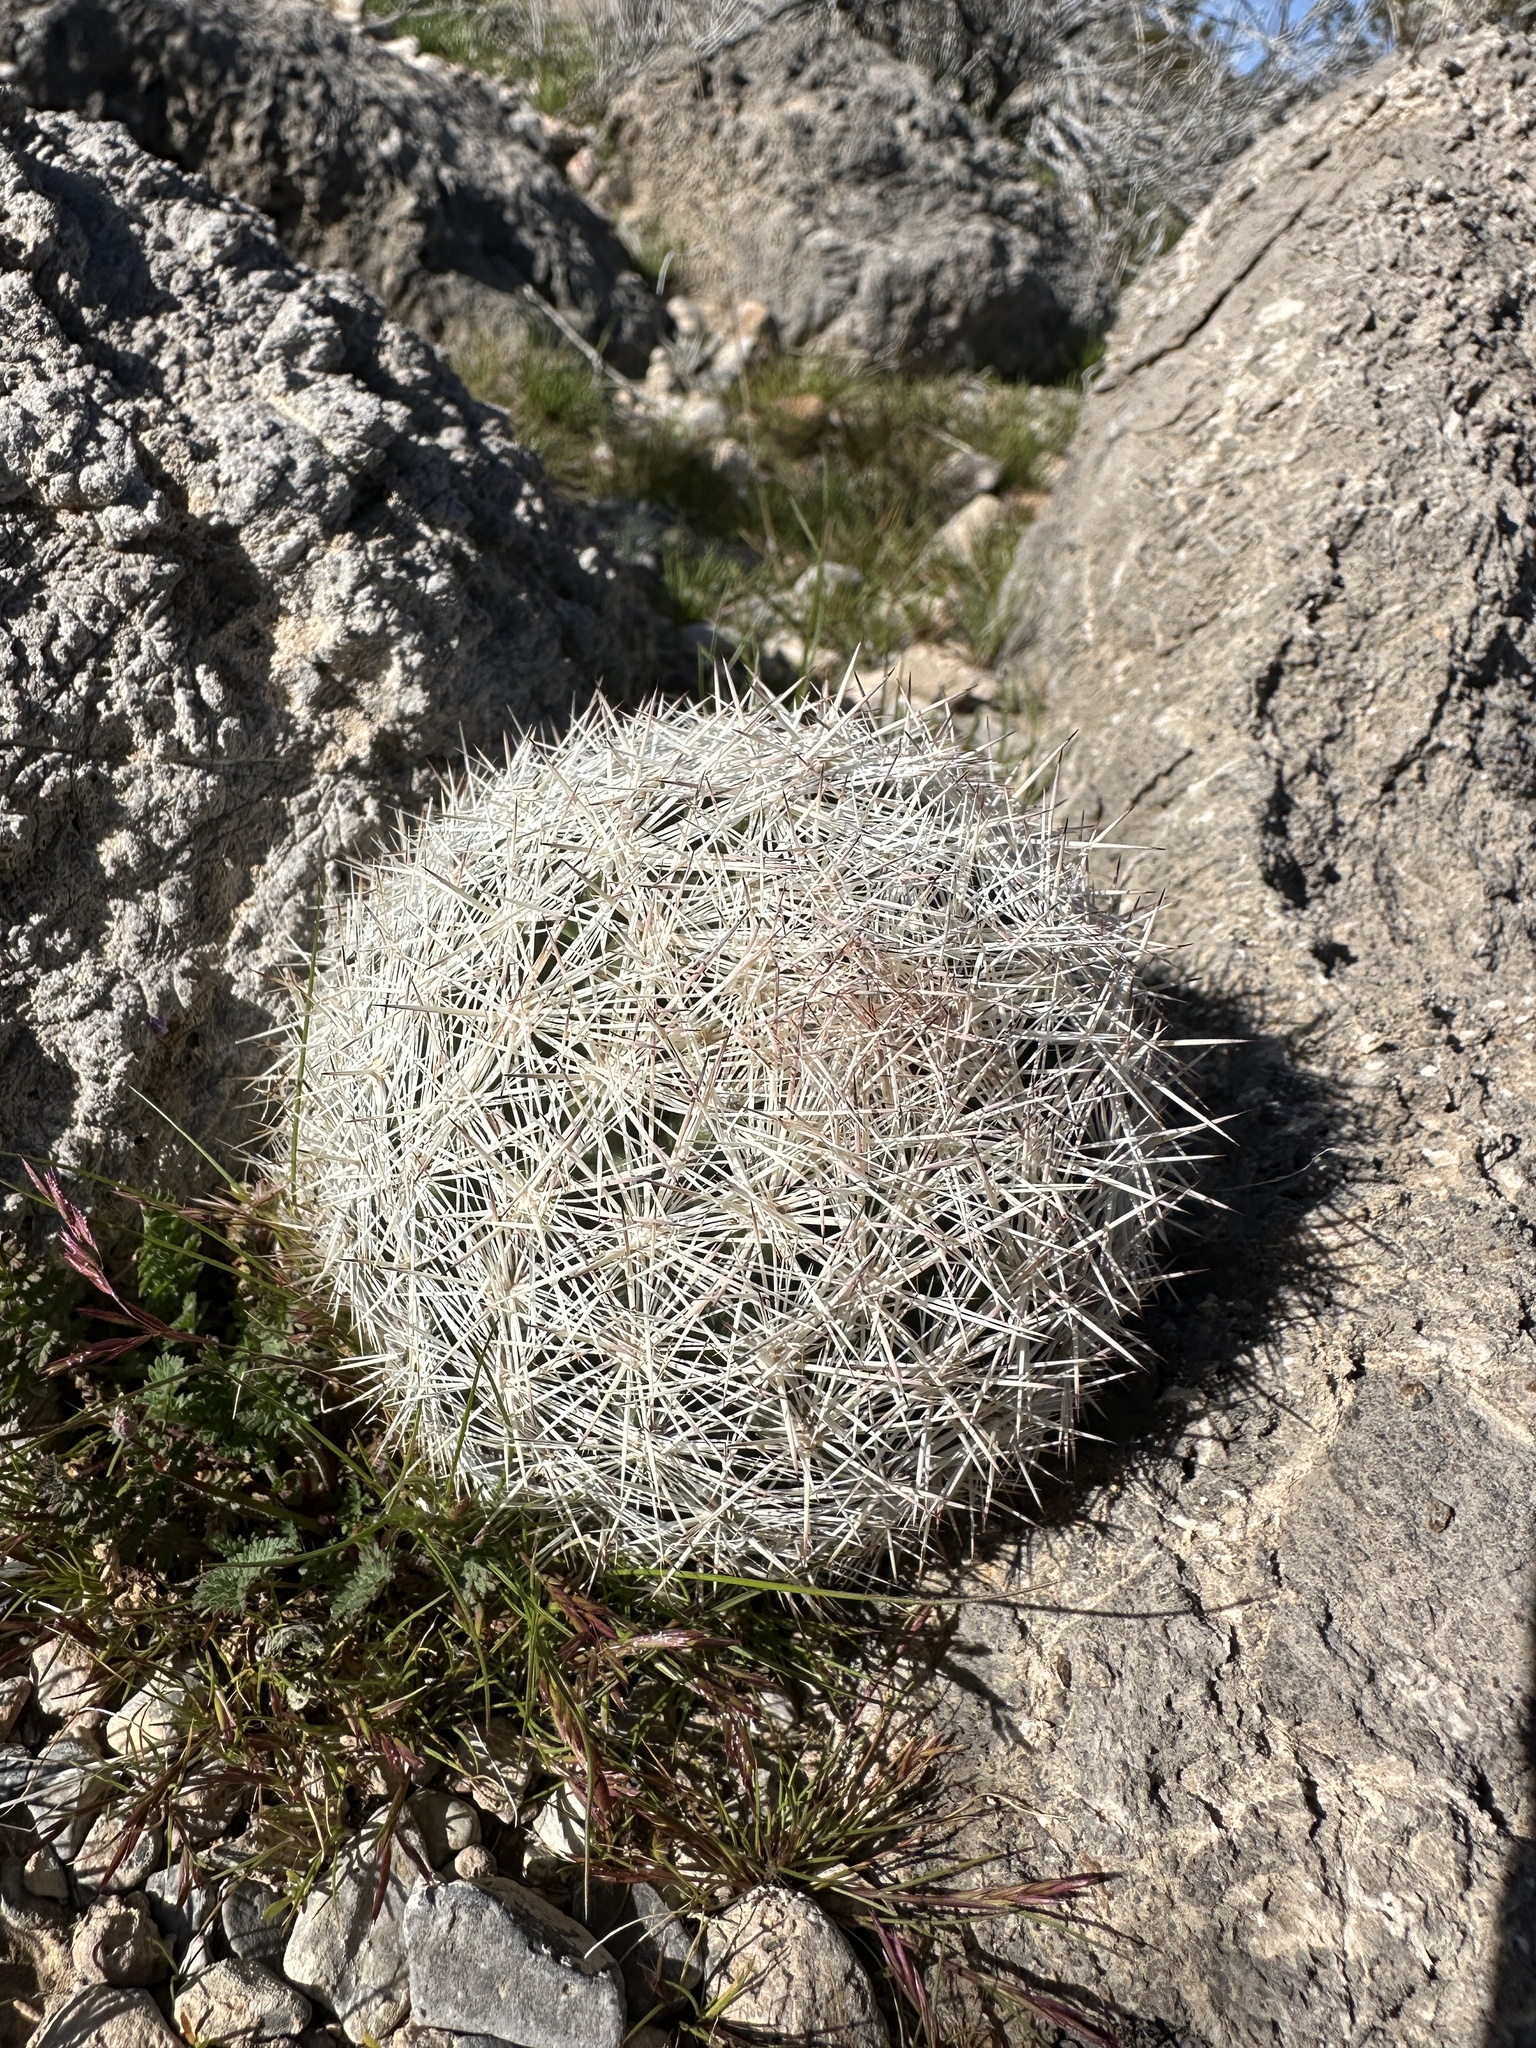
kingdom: Plantae
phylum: Tracheophyta
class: Magnoliopsida
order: Caryophyllales
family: Cactaceae
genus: Pelecyphora
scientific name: Pelecyphora dasyacantha
